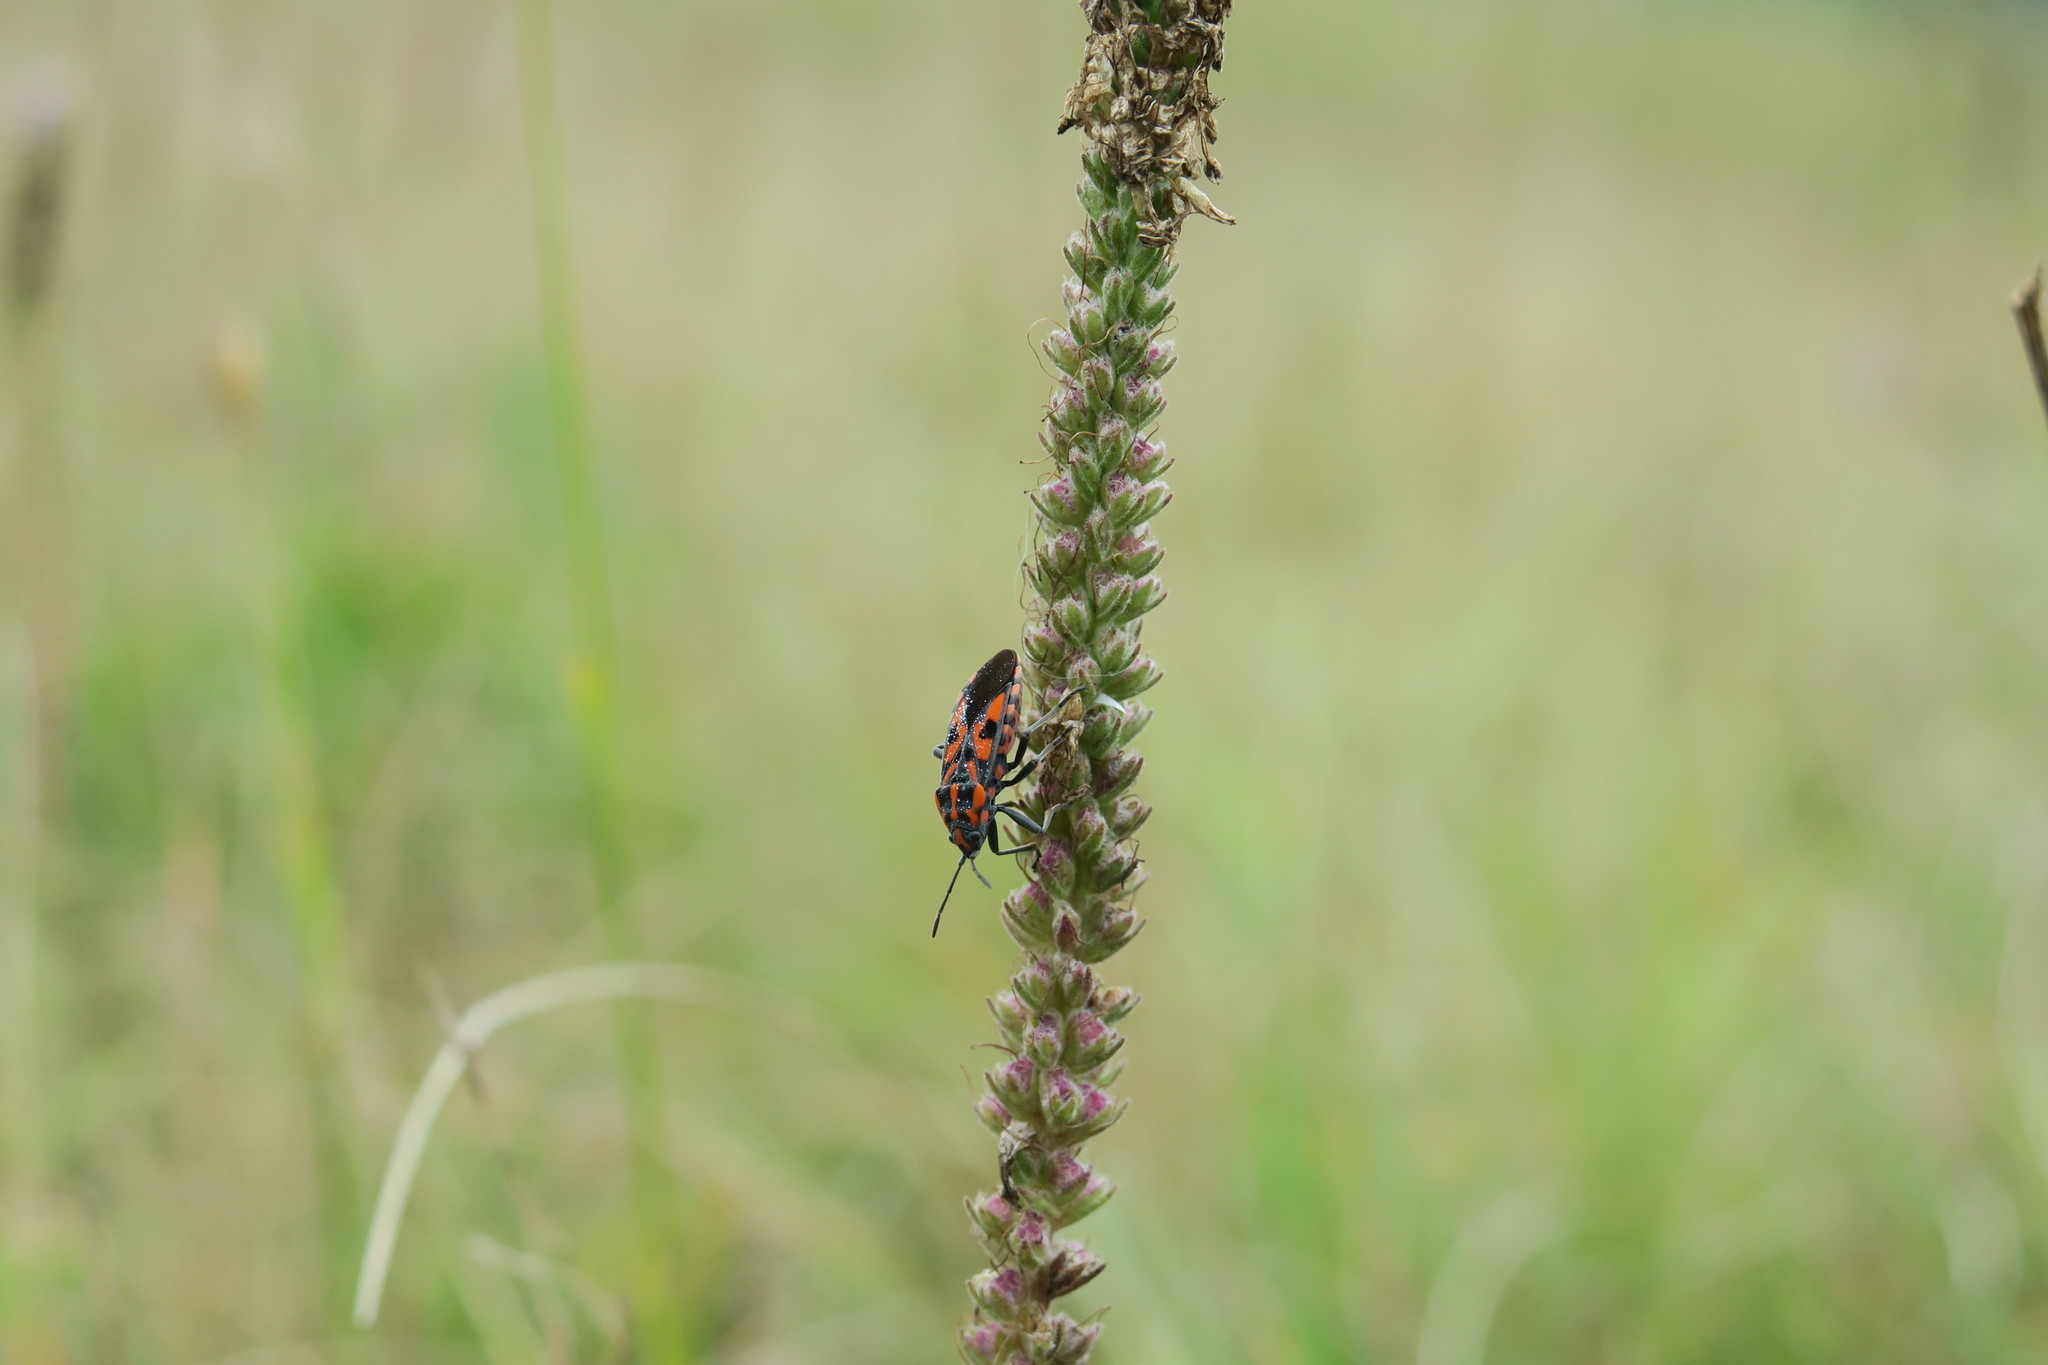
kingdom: Animalia
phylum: Arthropoda
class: Insecta
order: Hemiptera
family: Lygaeidae
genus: Spilostethus
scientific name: Spilostethus saxatilis
